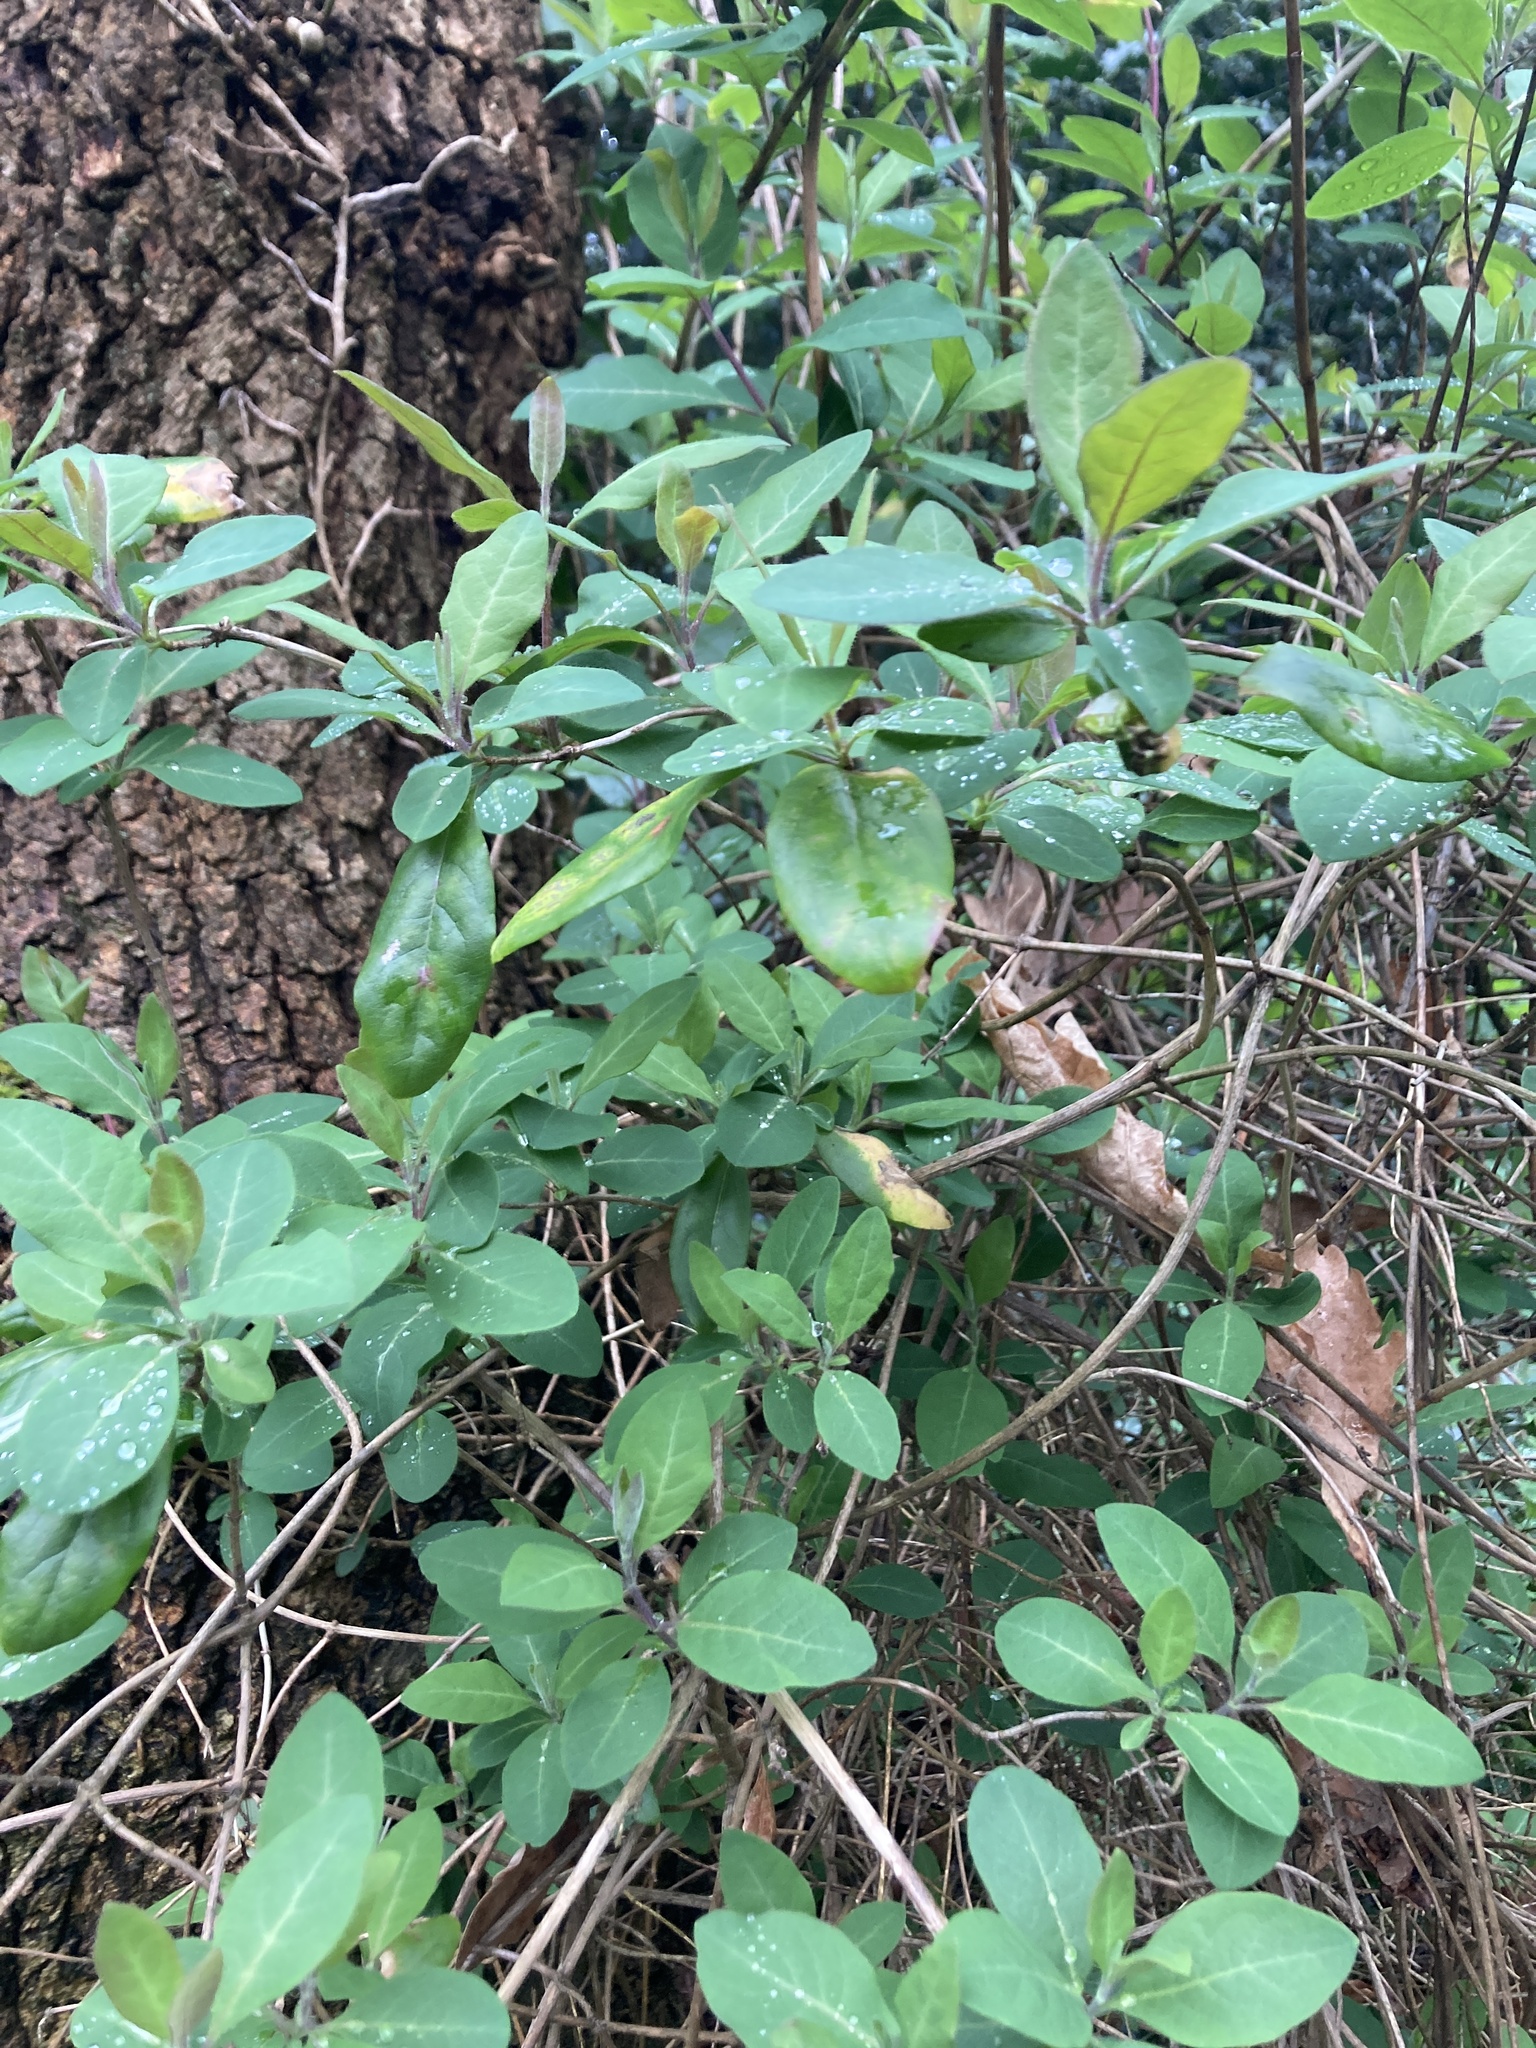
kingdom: Plantae
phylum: Tracheophyta
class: Magnoliopsida
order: Dipsacales
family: Caprifoliaceae
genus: Lonicera
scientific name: Lonicera periclymenum
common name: European honeysuckle
